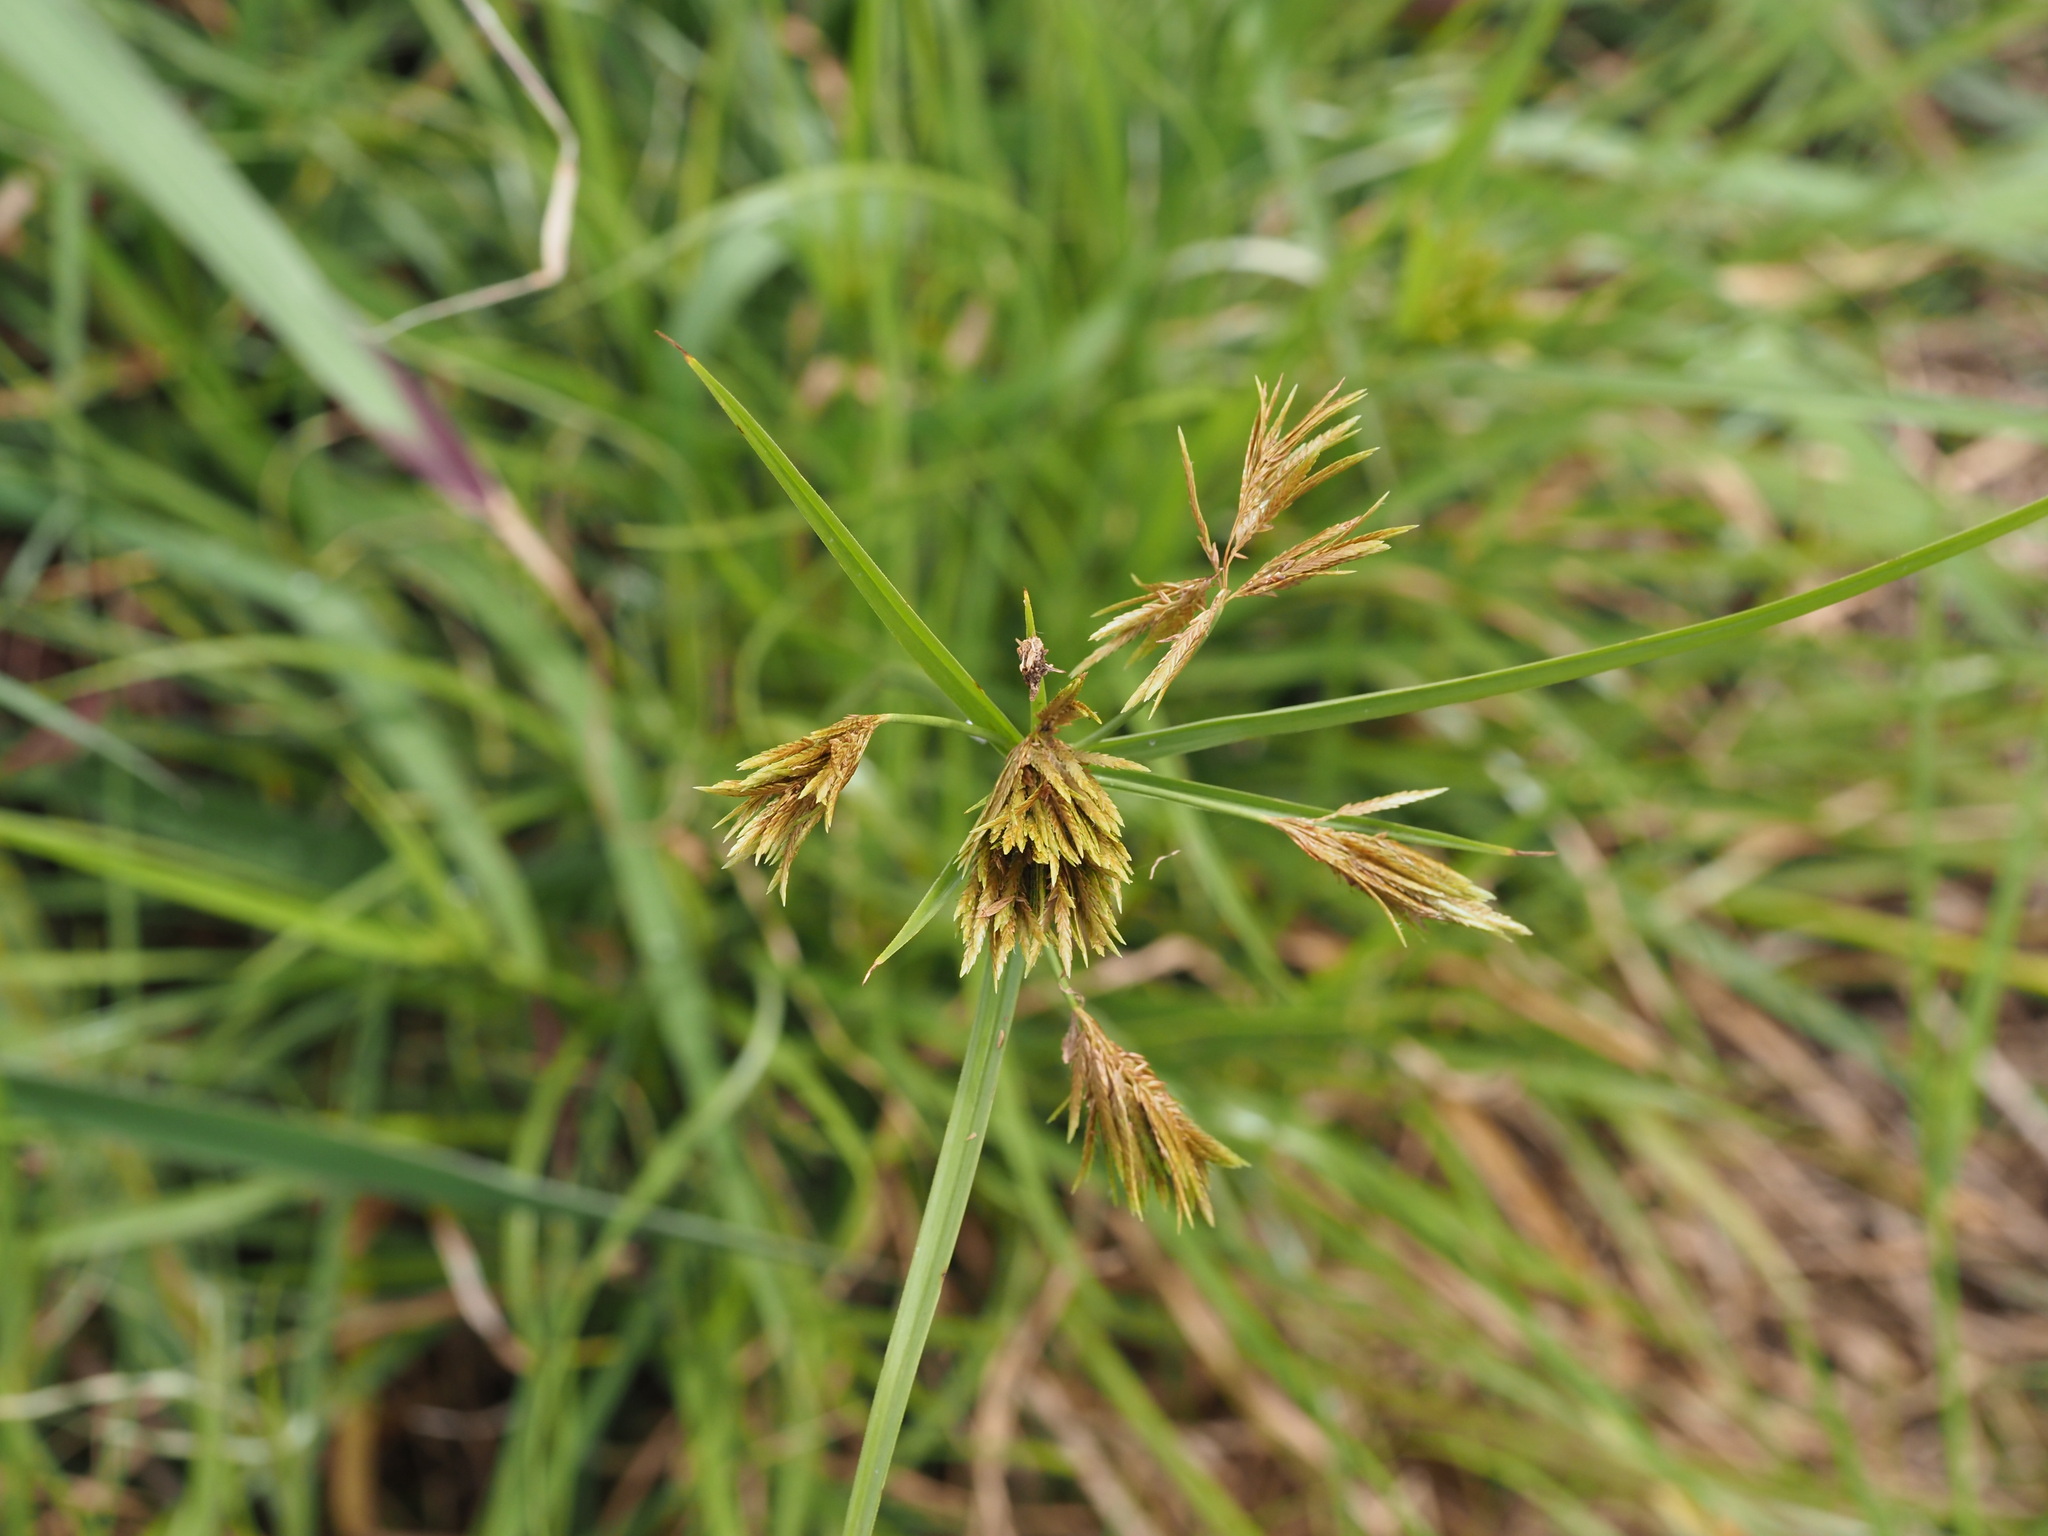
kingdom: Plantae
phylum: Tracheophyta
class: Liliopsida
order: Poales
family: Cyperaceae
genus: Cyperus
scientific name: Cyperus polystachyos
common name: Bunchy flat sedge
